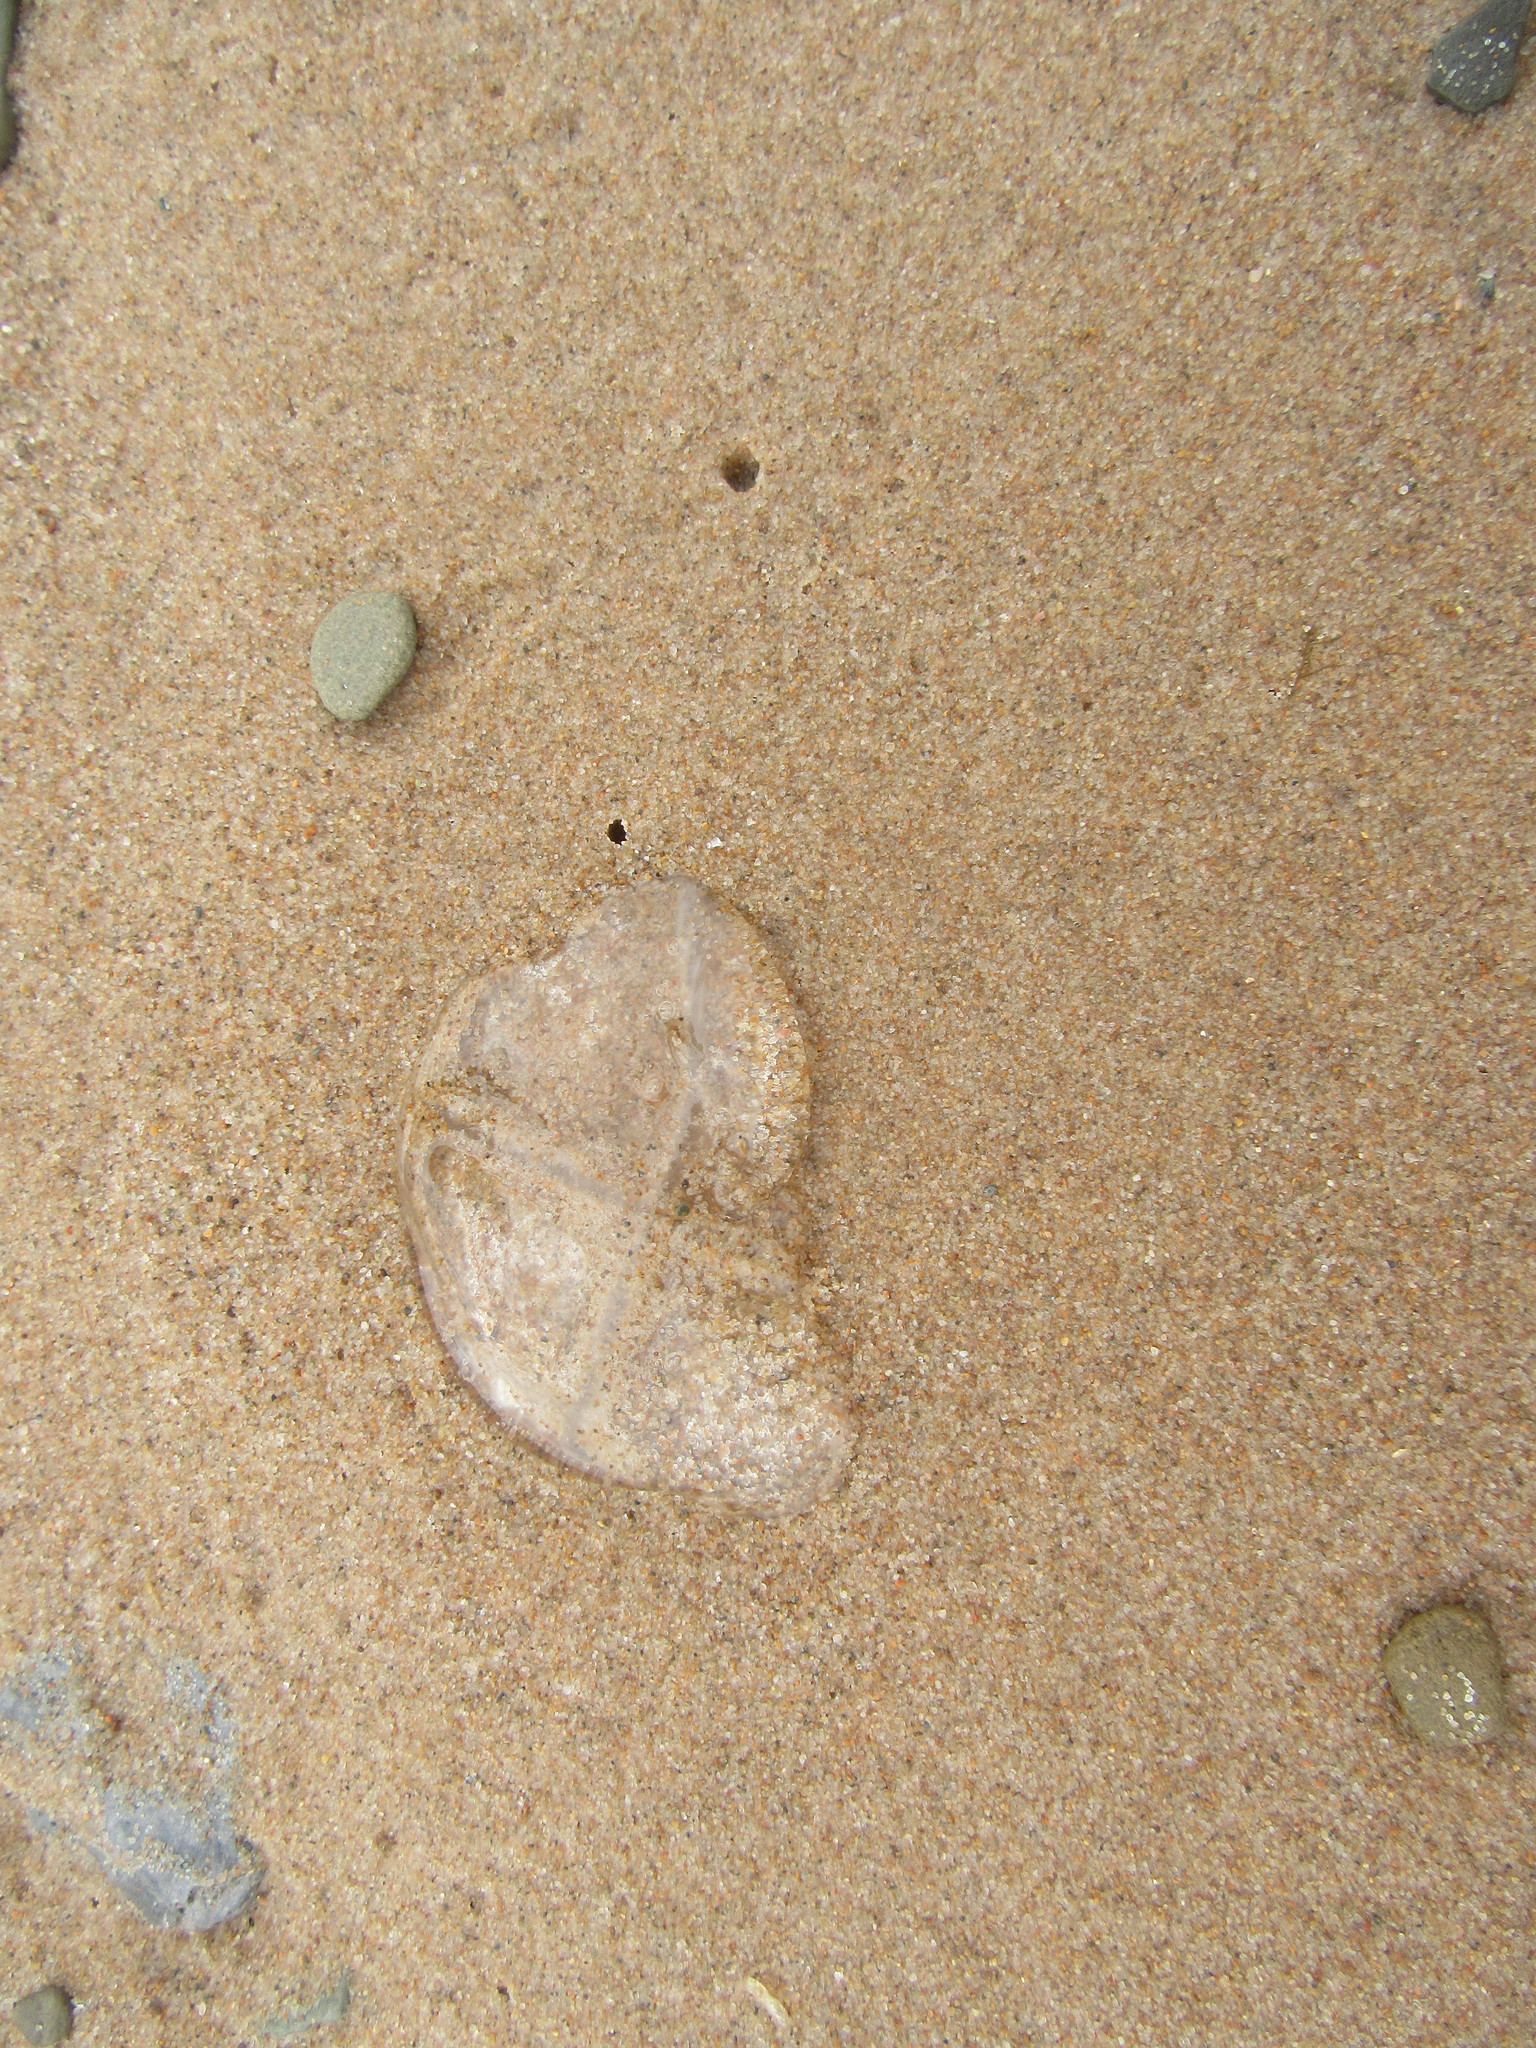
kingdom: Animalia
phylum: Cnidaria
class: Hydrozoa
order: Leptothecata
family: Laodiceidae
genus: Staurostoma
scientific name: Staurostoma mertensii
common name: Whitecross jellyfish
